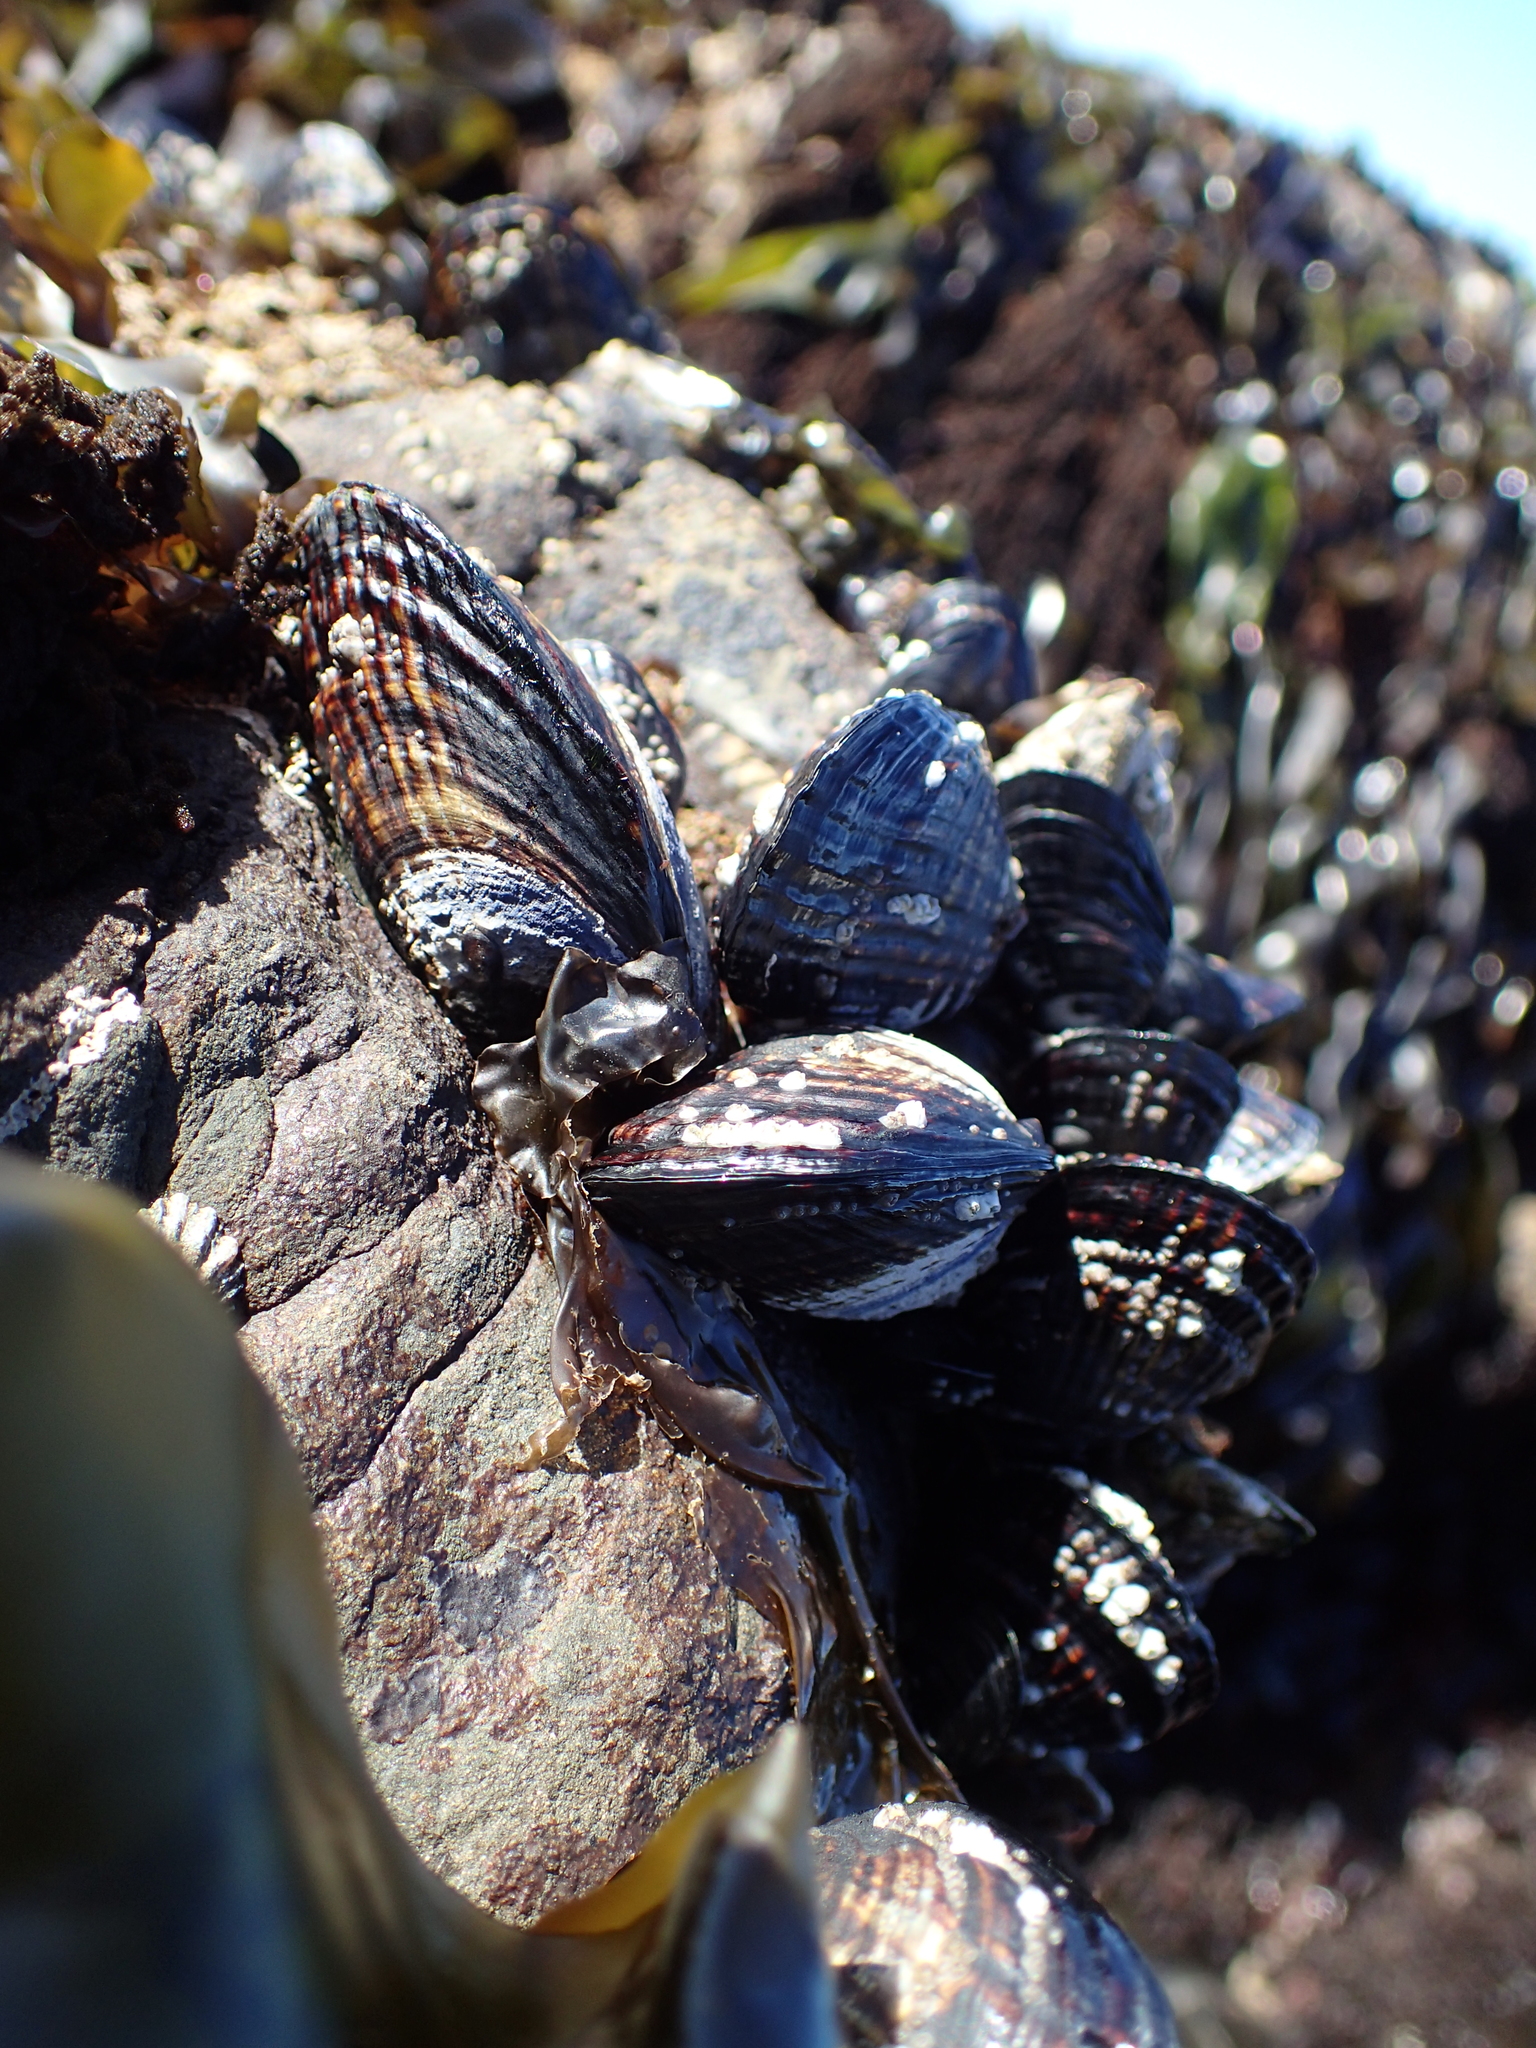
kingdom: Animalia
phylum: Mollusca
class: Bivalvia
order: Mytilida
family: Mytilidae
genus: Mytilus
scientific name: Mytilus californianus
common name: California mussel
